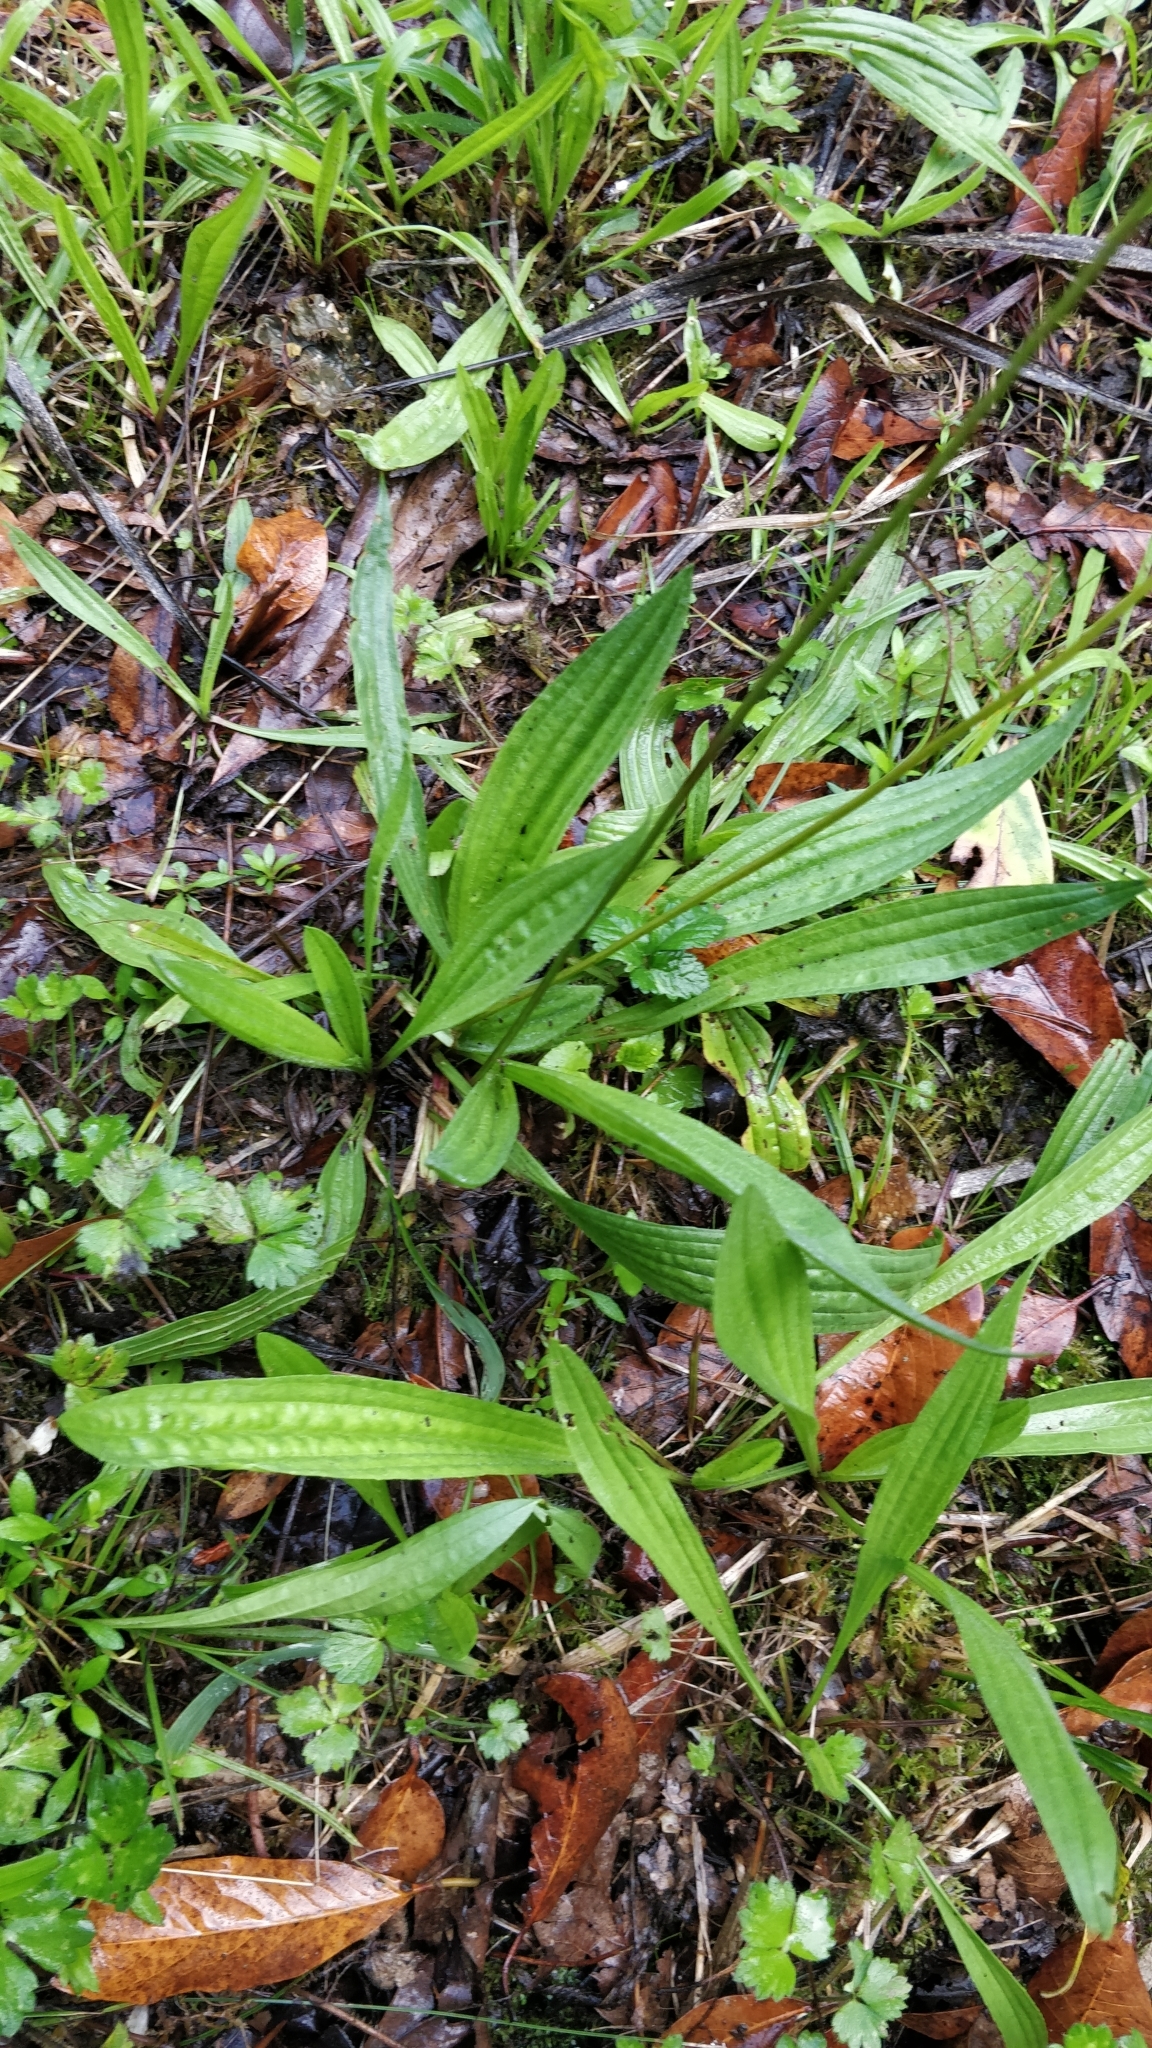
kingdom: Plantae
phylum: Tracheophyta
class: Magnoliopsida
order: Lamiales
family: Plantaginaceae
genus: Plantago
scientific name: Plantago lanceolata
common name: Ribwort plantain
